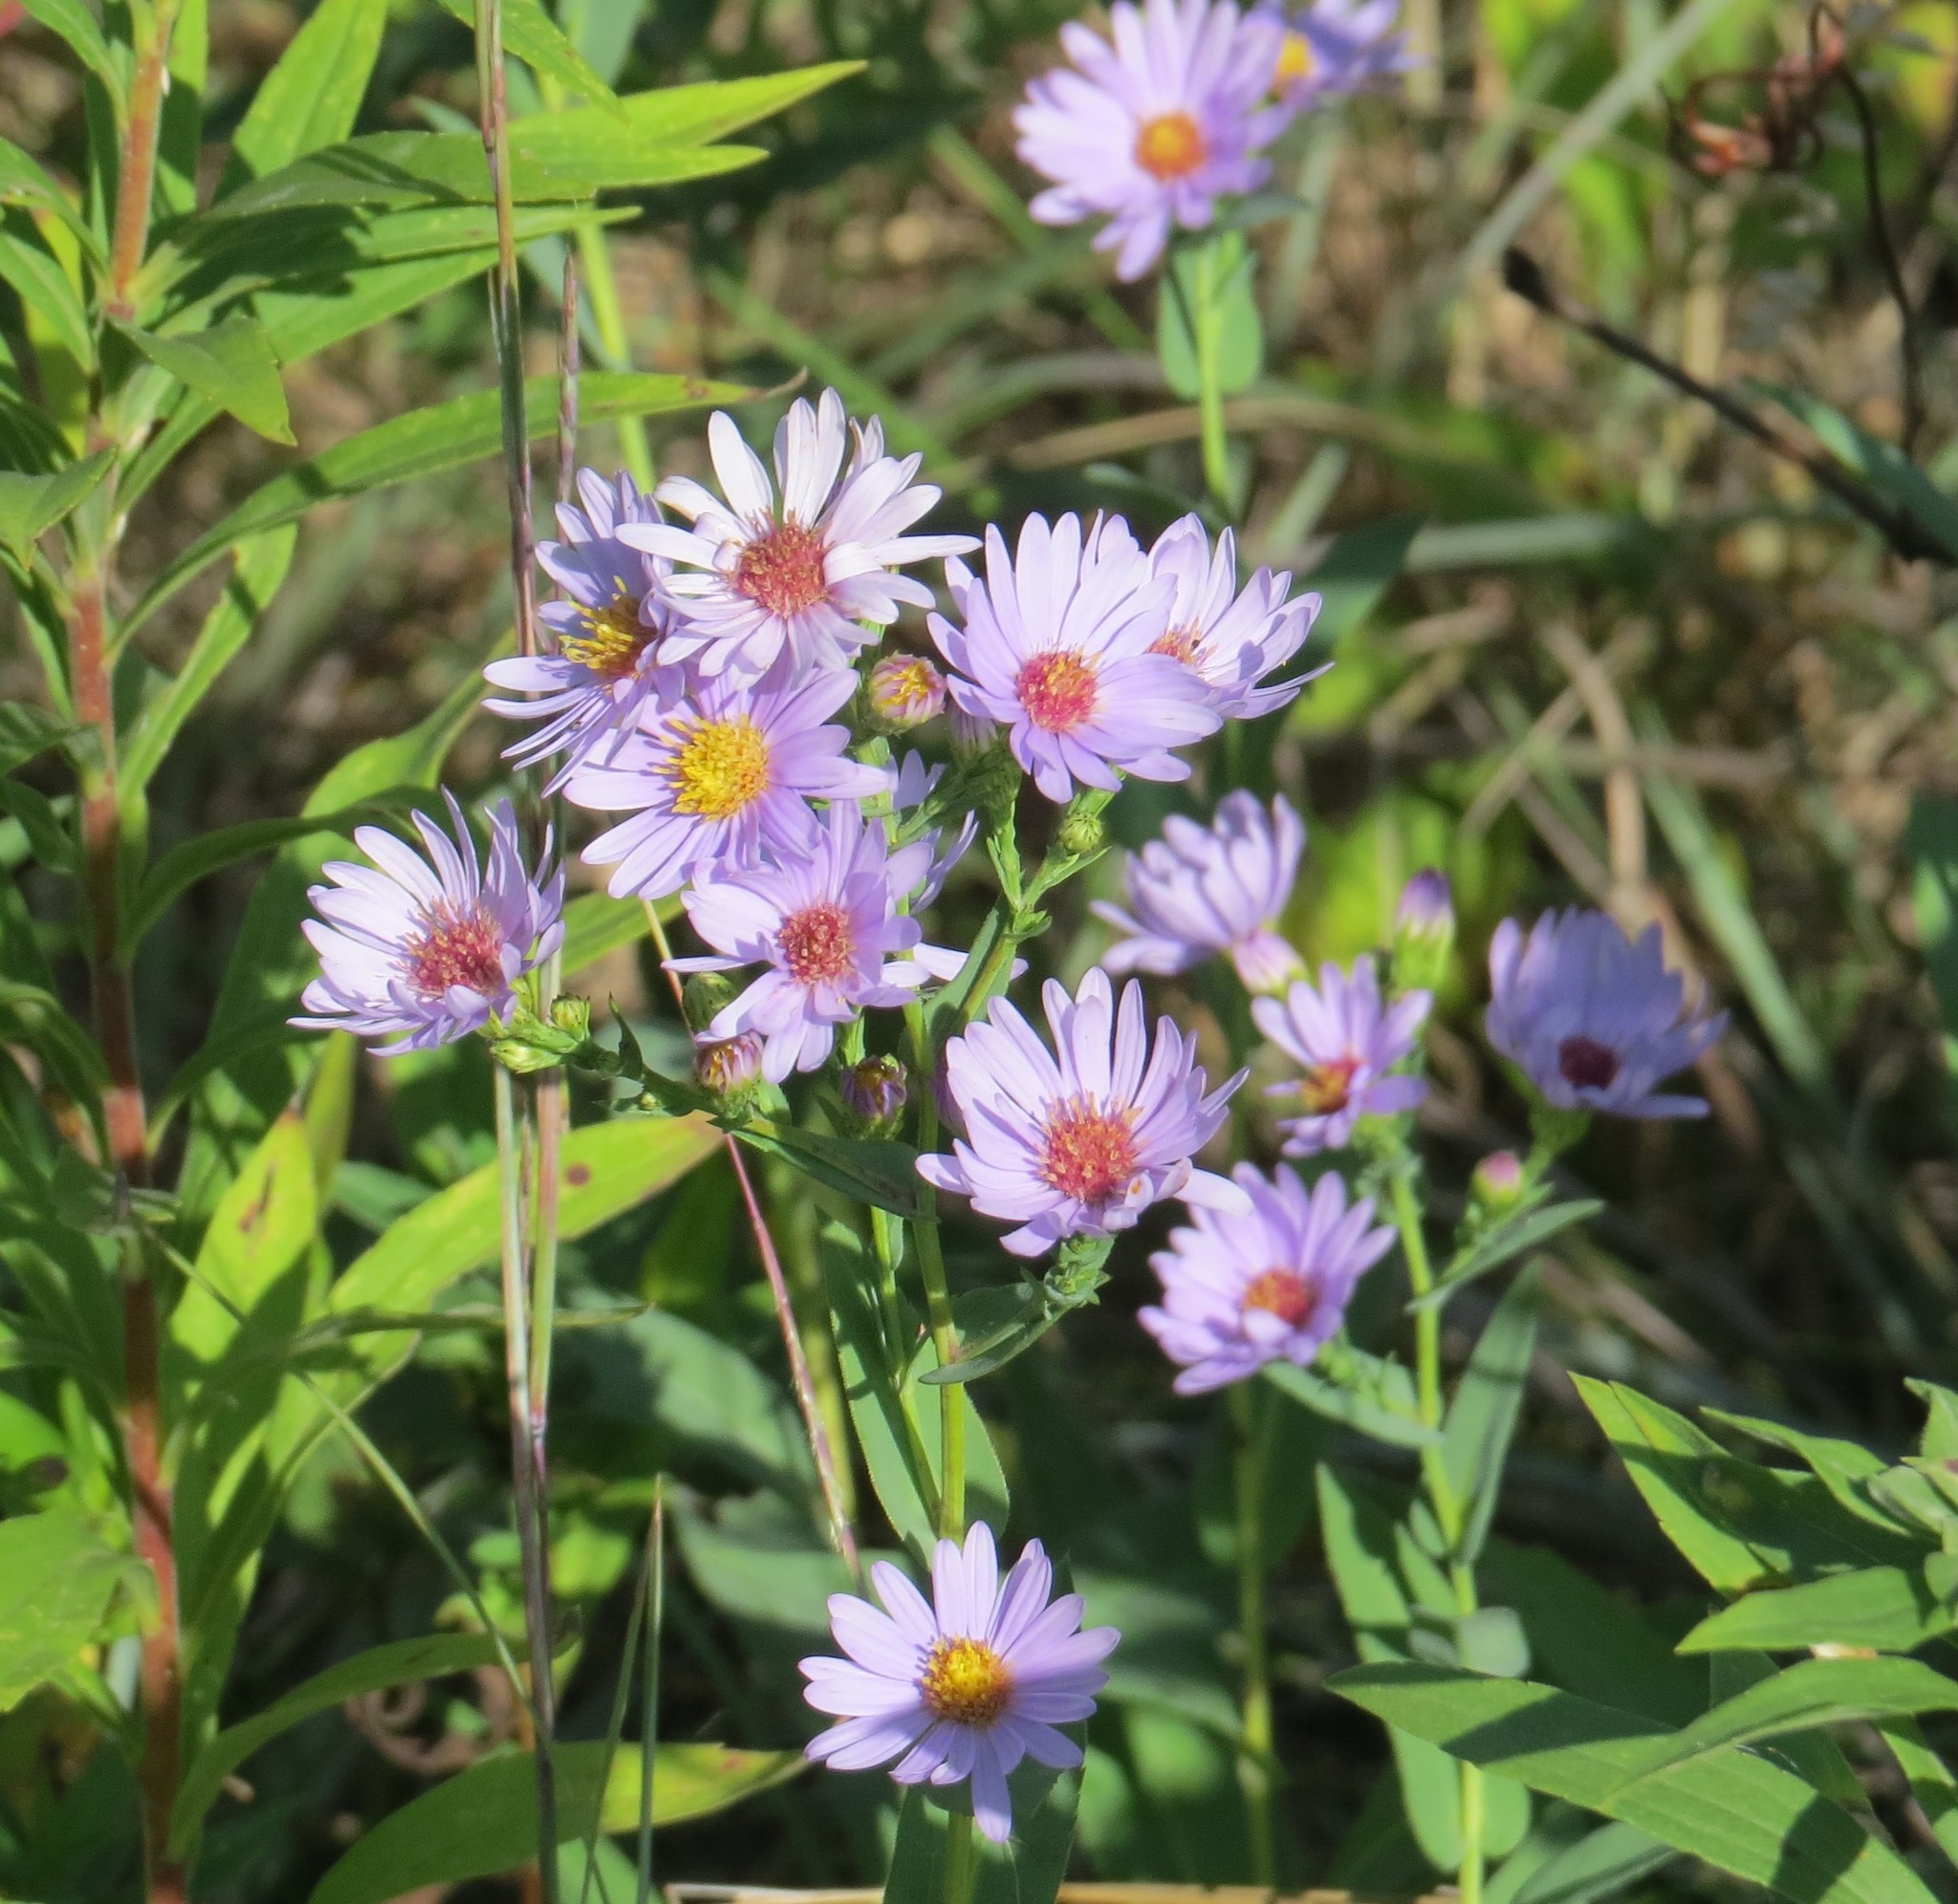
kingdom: Plantae
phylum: Tracheophyta
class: Magnoliopsida
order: Asterales
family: Asteraceae
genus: Symphyotrichum
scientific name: Symphyotrichum laeve
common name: Glaucous aster
